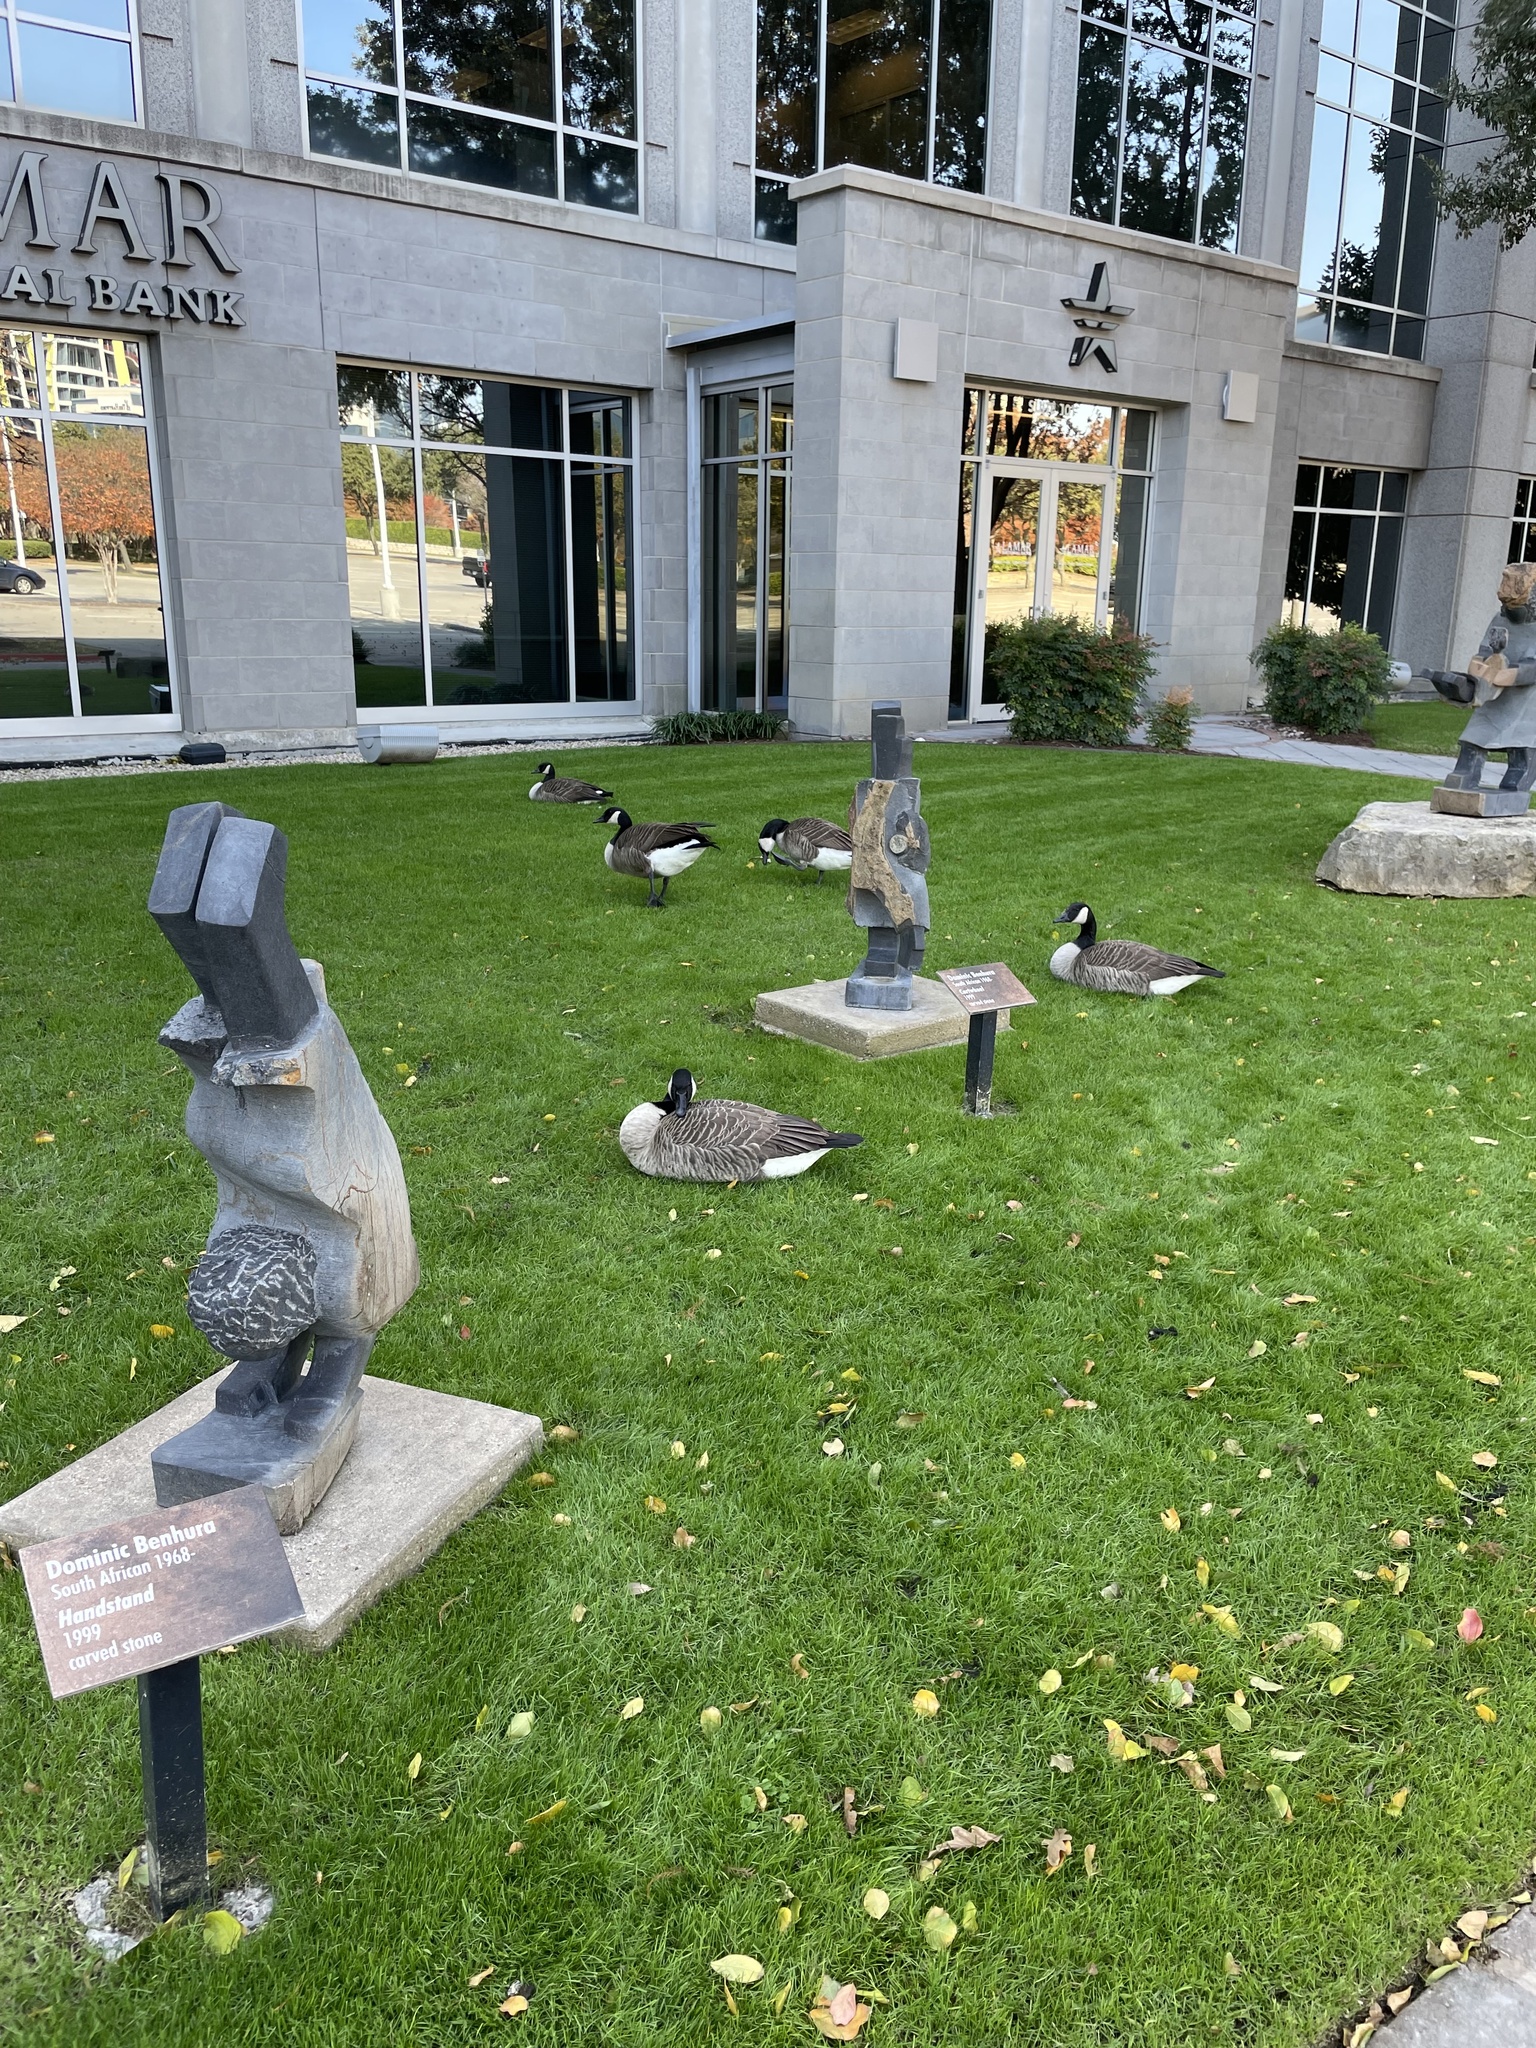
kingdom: Animalia
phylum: Chordata
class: Aves
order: Anseriformes
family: Anatidae
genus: Branta
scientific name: Branta canadensis
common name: Canada goose
